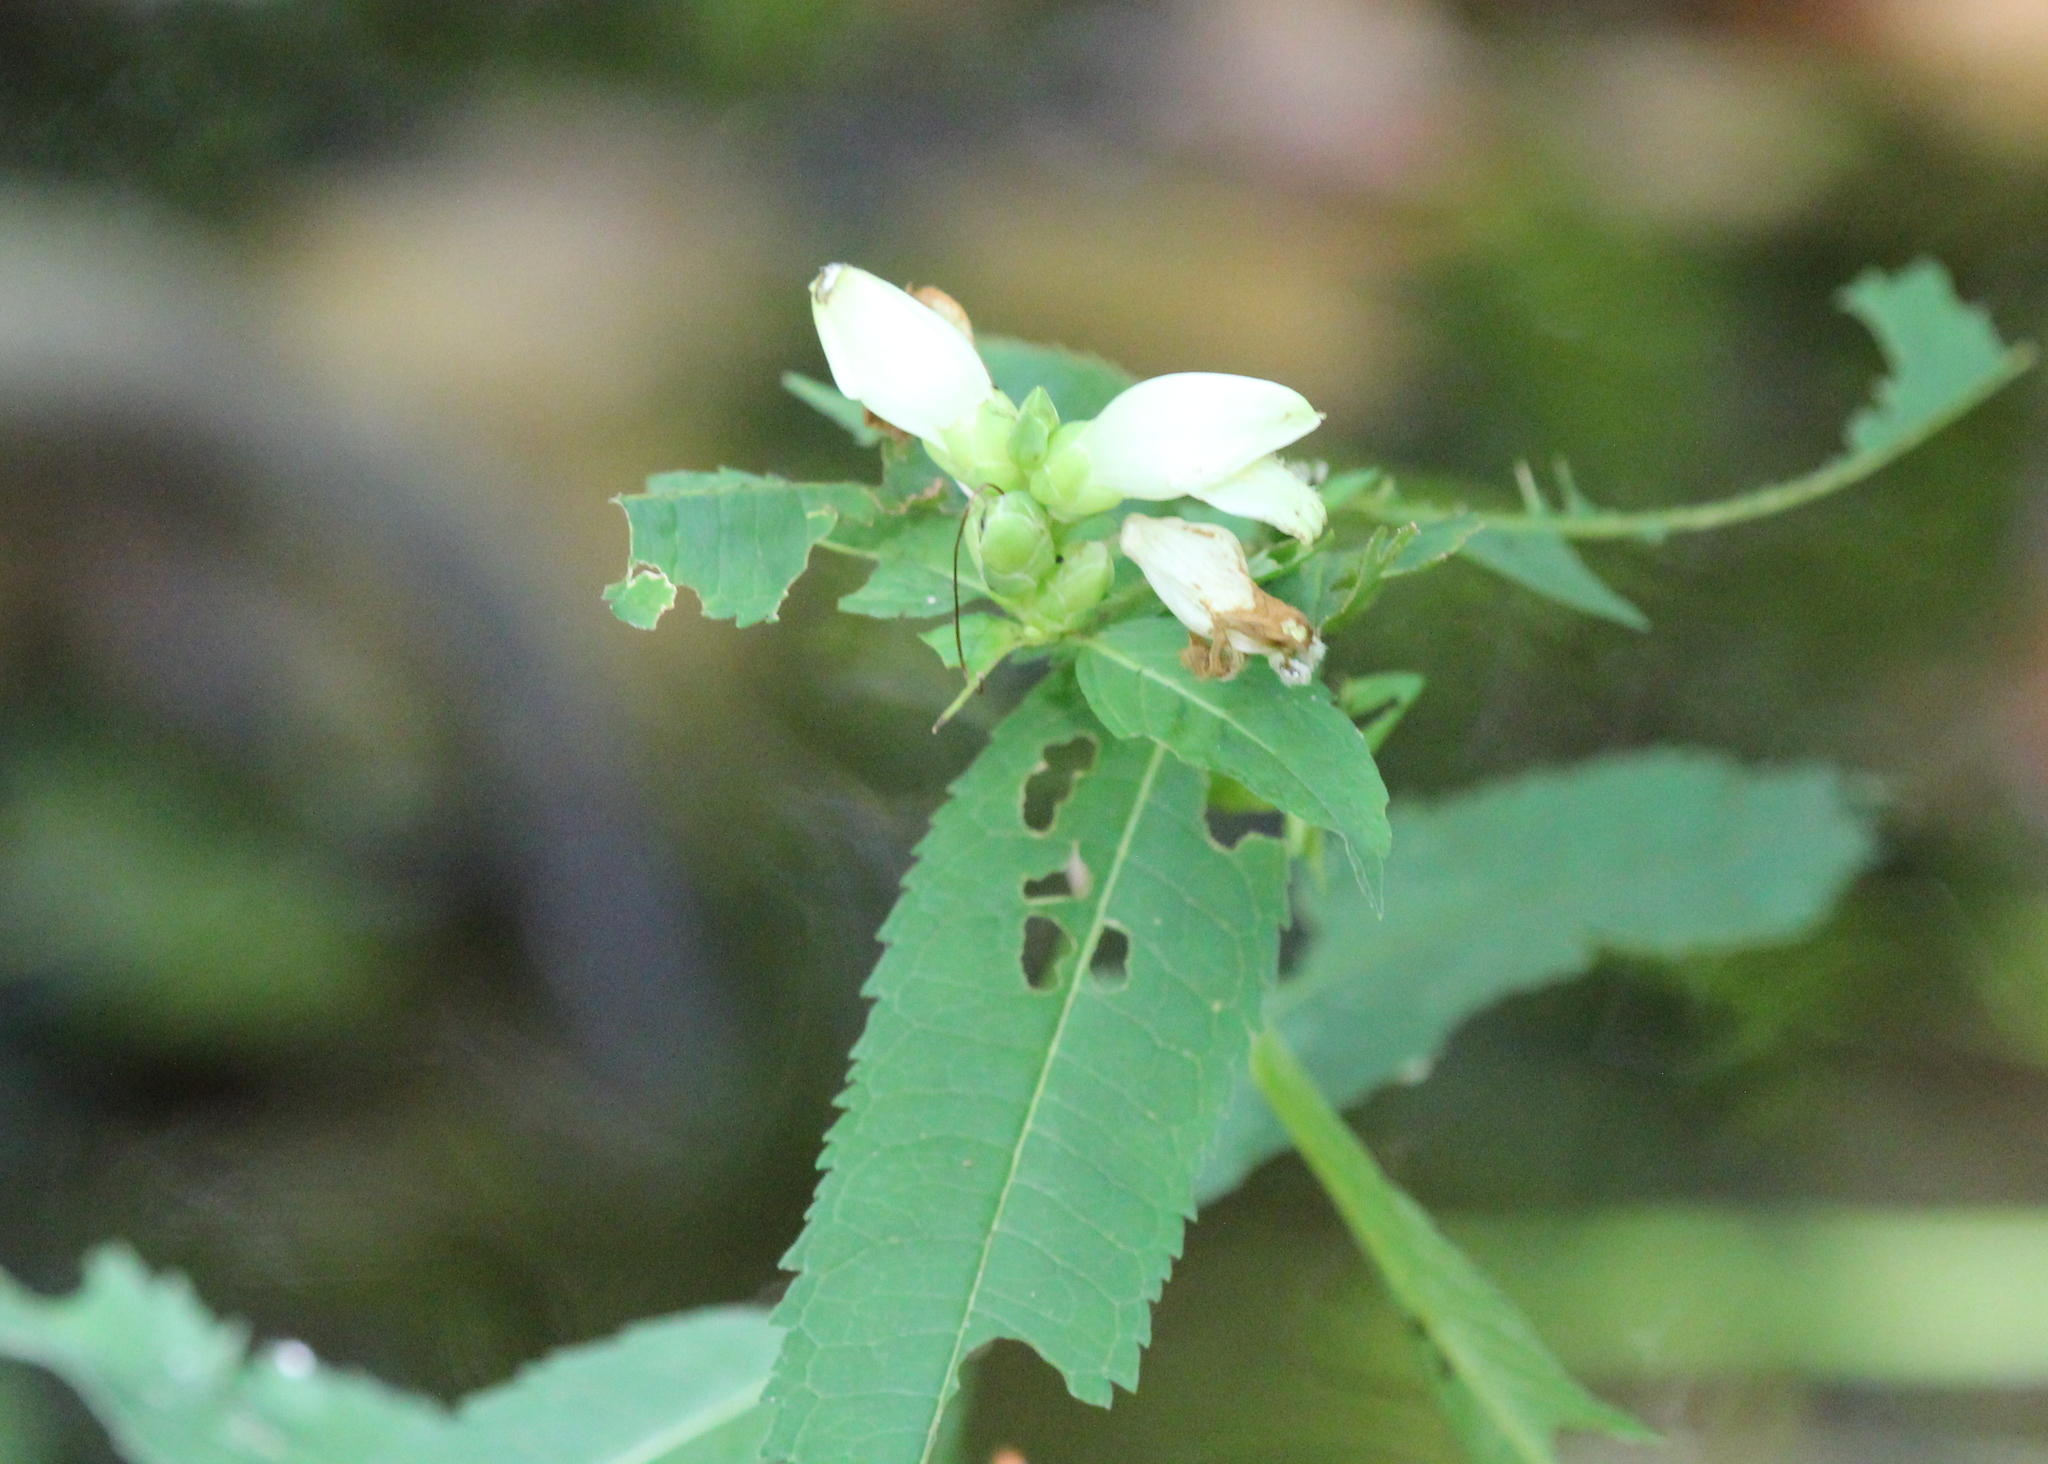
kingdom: Plantae
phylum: Tracheophyta
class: Magnoliopsida
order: Lamiales
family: Plantaginaceae
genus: Chelone
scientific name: Chelone glabra
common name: Snakehead
